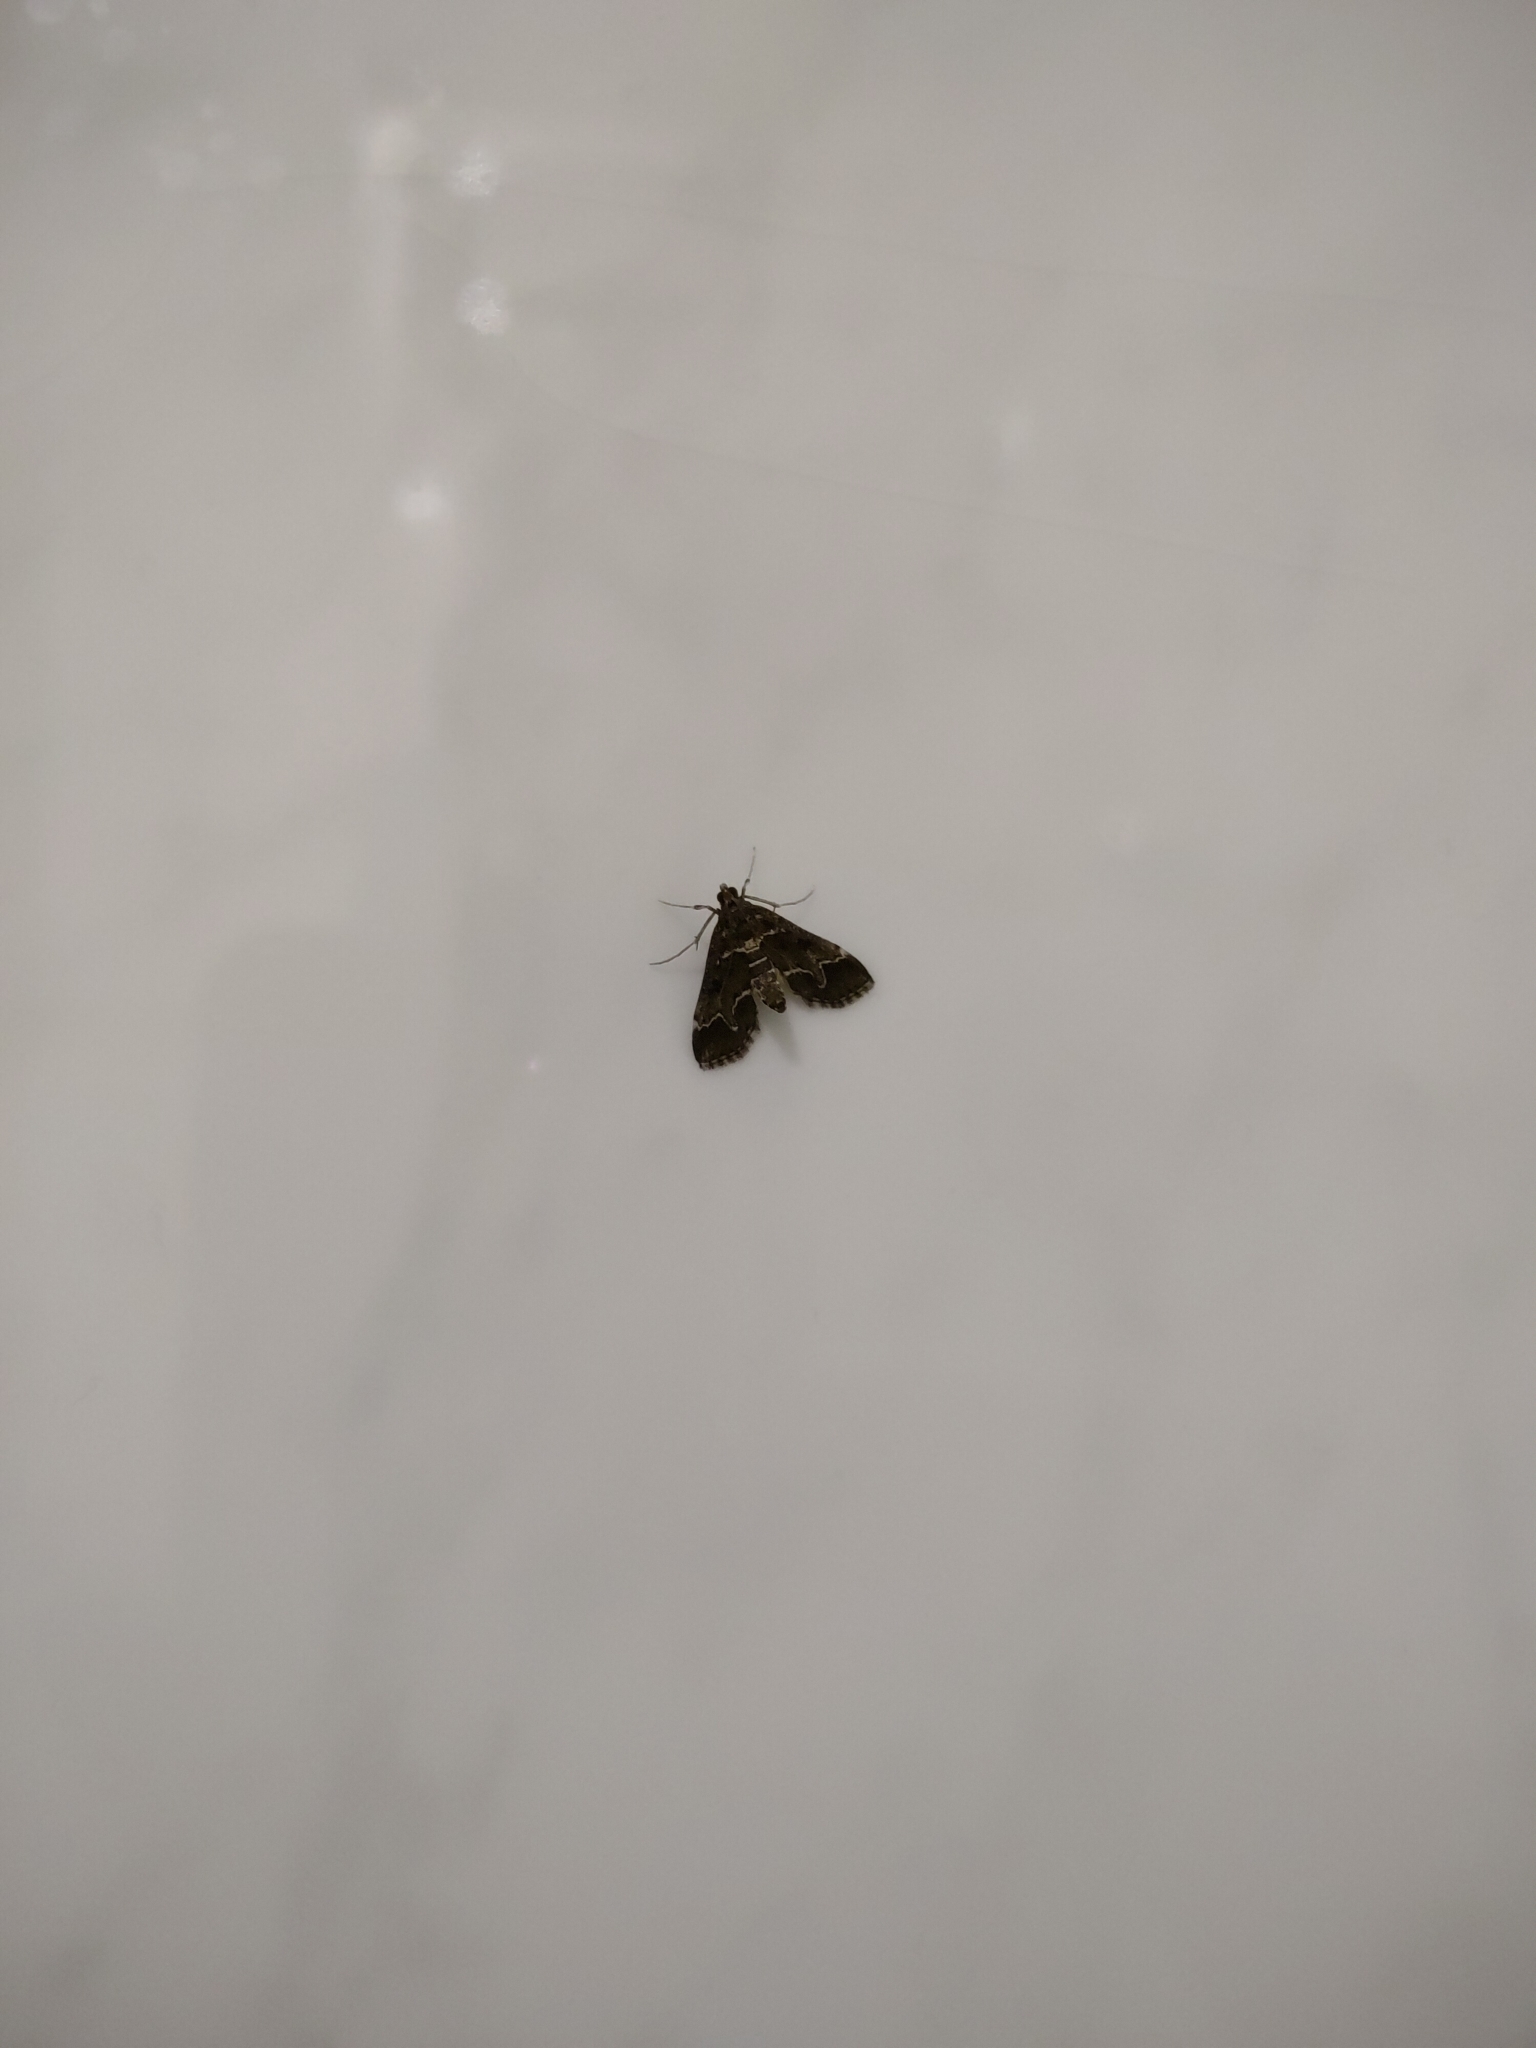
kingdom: Animalia
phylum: Arthropoda
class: Insecta
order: Lepidoptera
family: Crambidae
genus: Duponchelia
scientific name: Duponchelia fovealis
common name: Crambid moth
